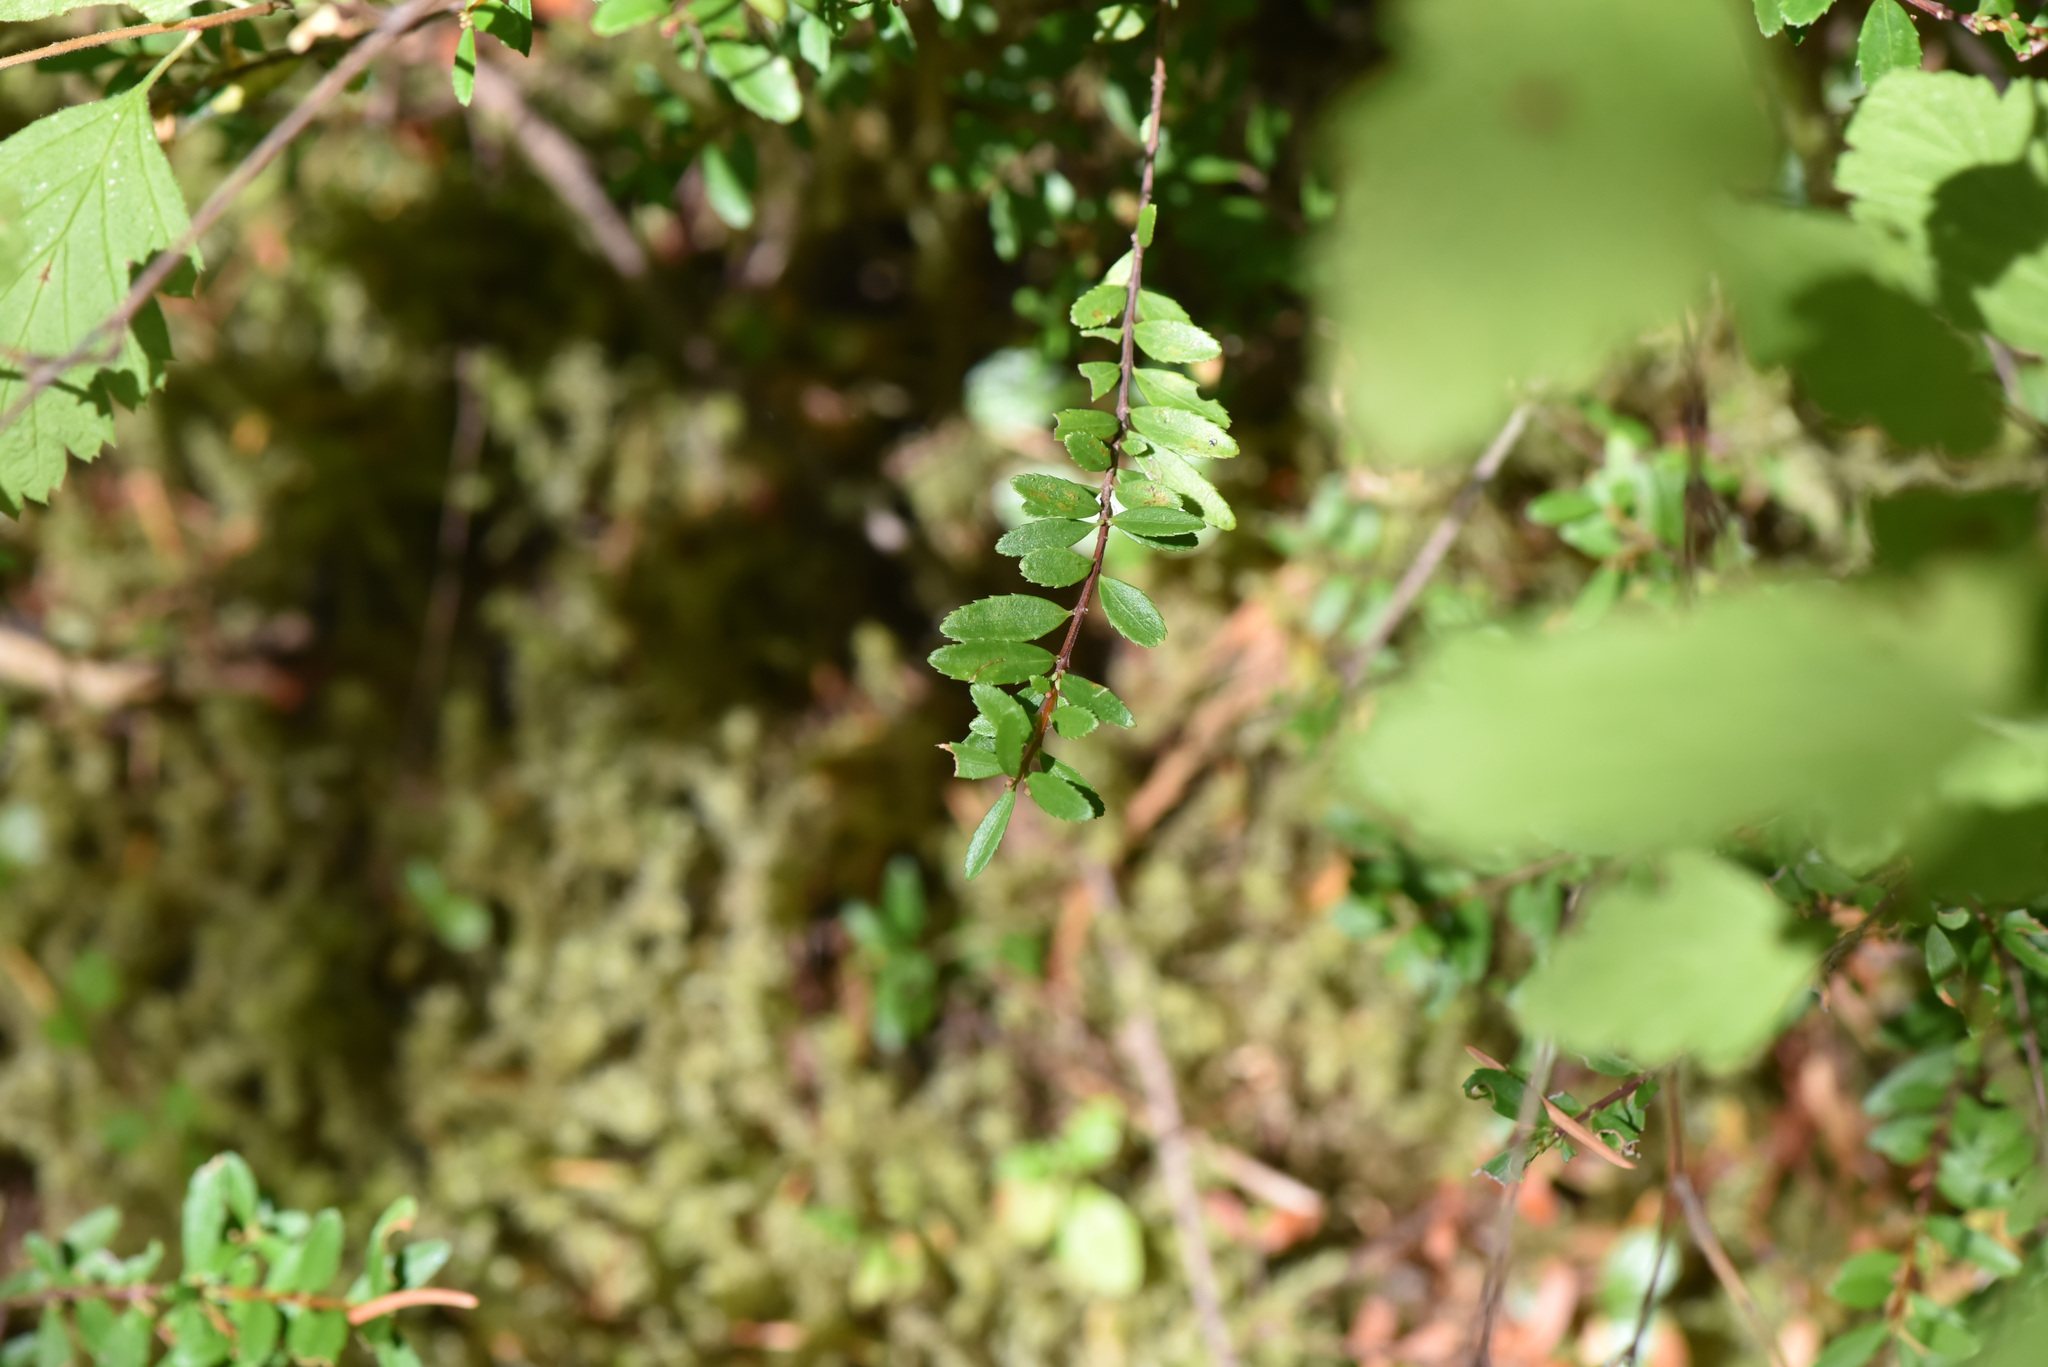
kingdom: Plantae
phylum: Tracheophyta
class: Magnoliopsida
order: Celastrales
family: Celastraceae
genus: Paxistima
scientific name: Paxistima myrsinites
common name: Mountain-lover
